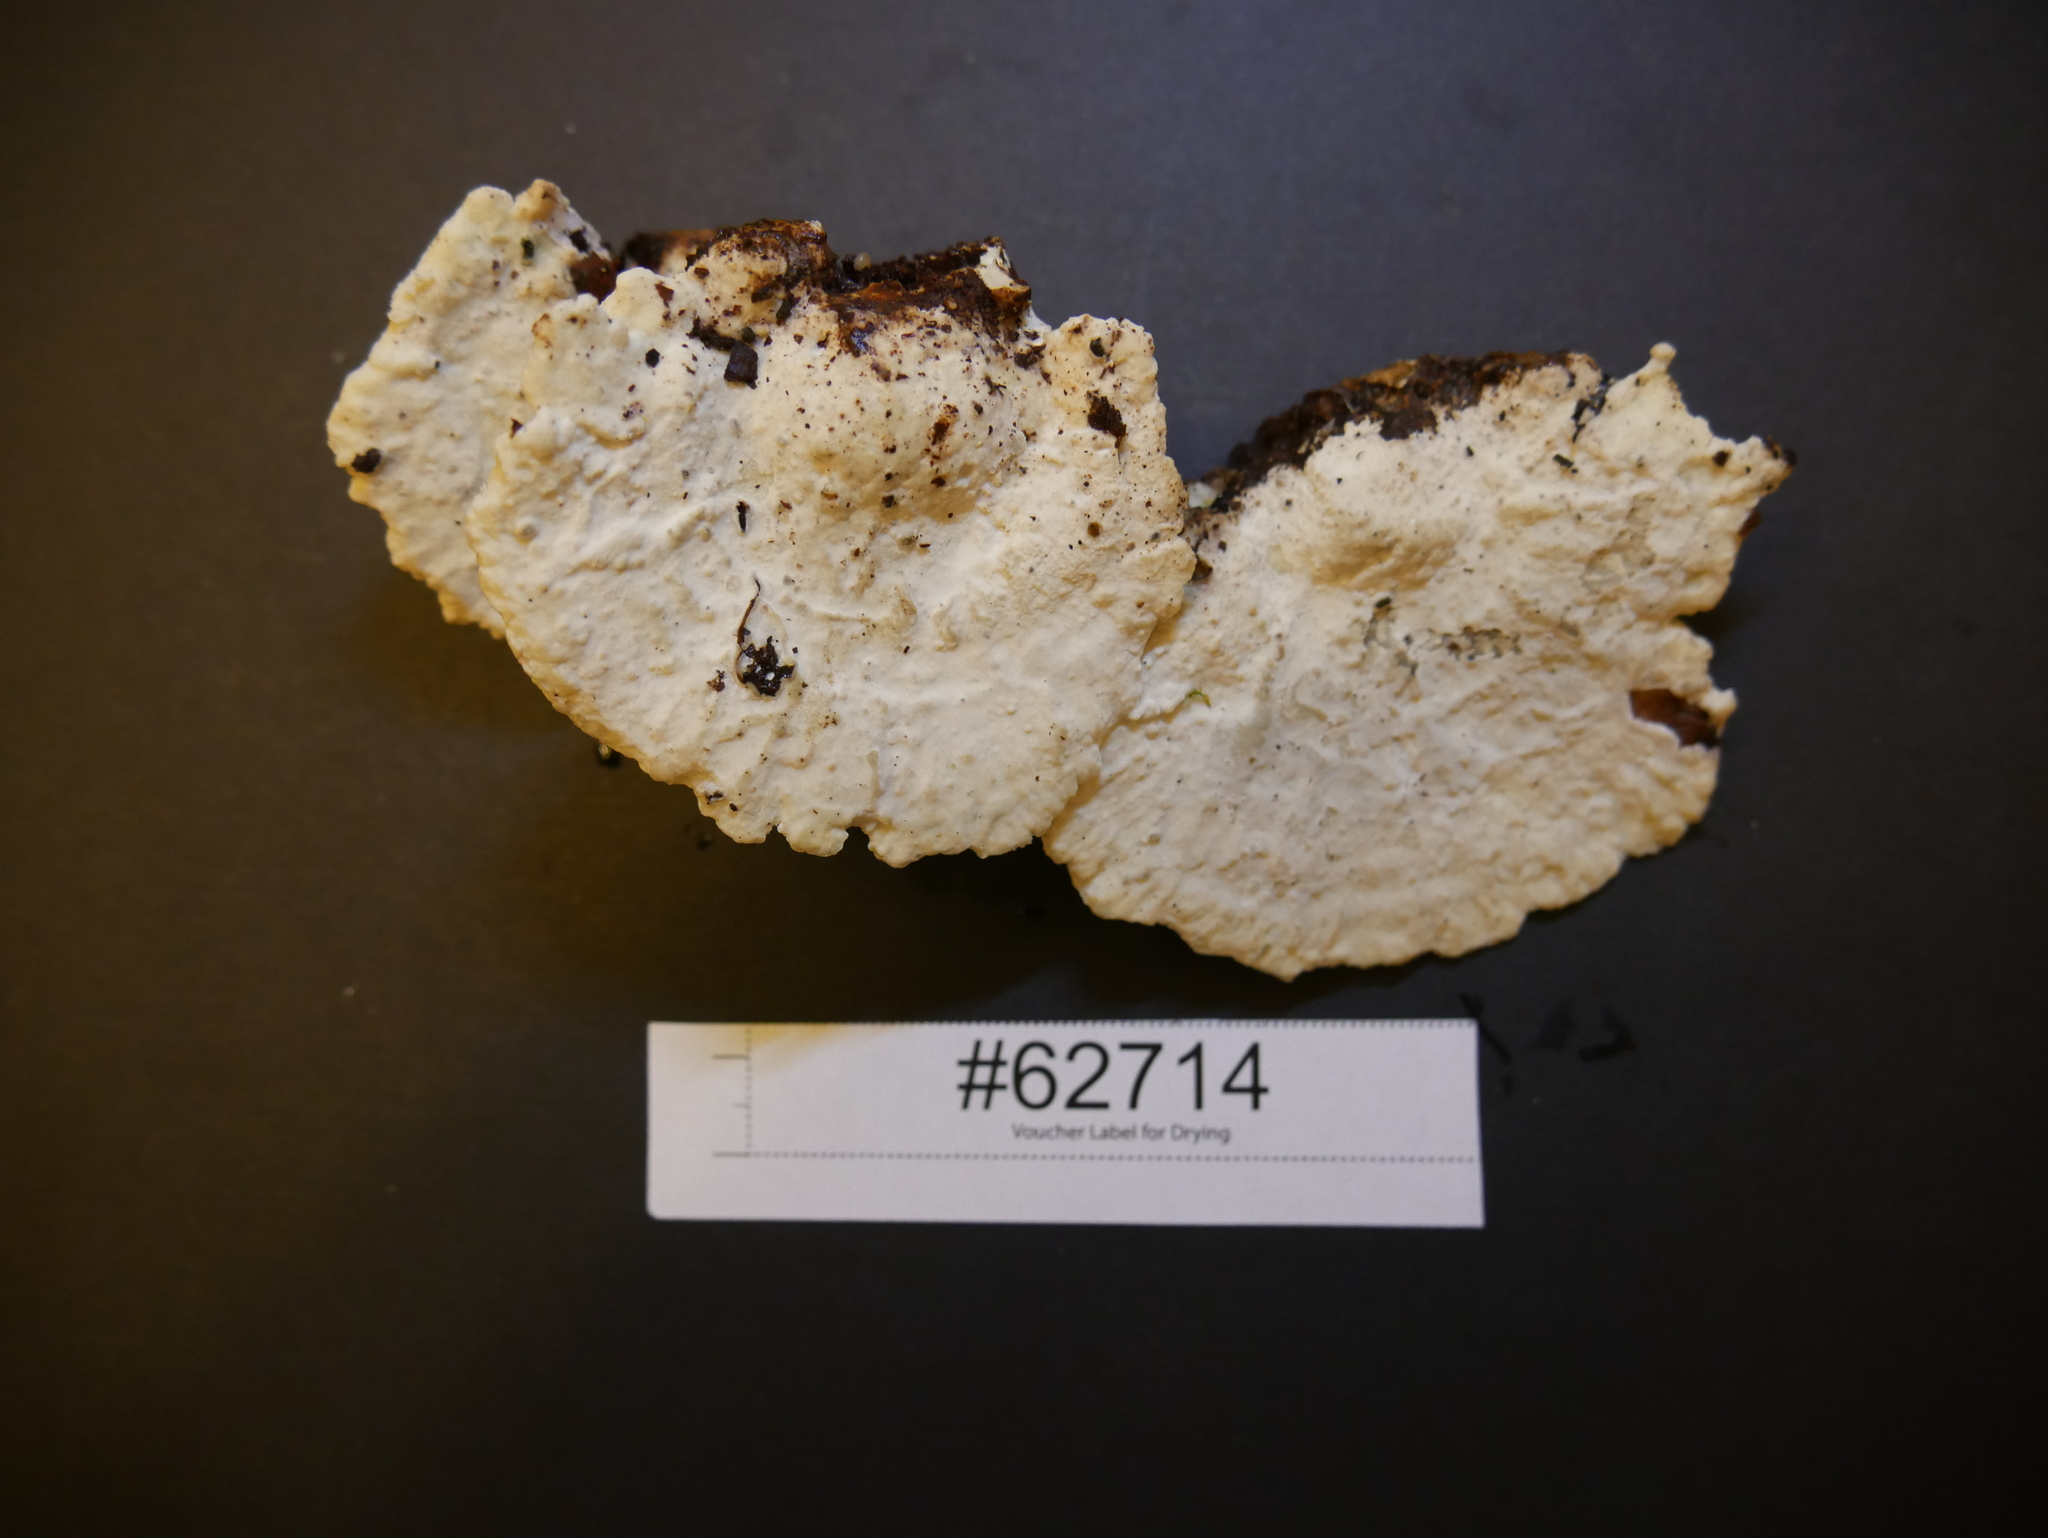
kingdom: Fungi
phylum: Basidiomycota
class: Agaricomycetes
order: Polyporales
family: Fomitopsidaceae
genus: Niveoporofomes
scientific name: Niveoporofomes spraguei
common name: Green cheese polypore
